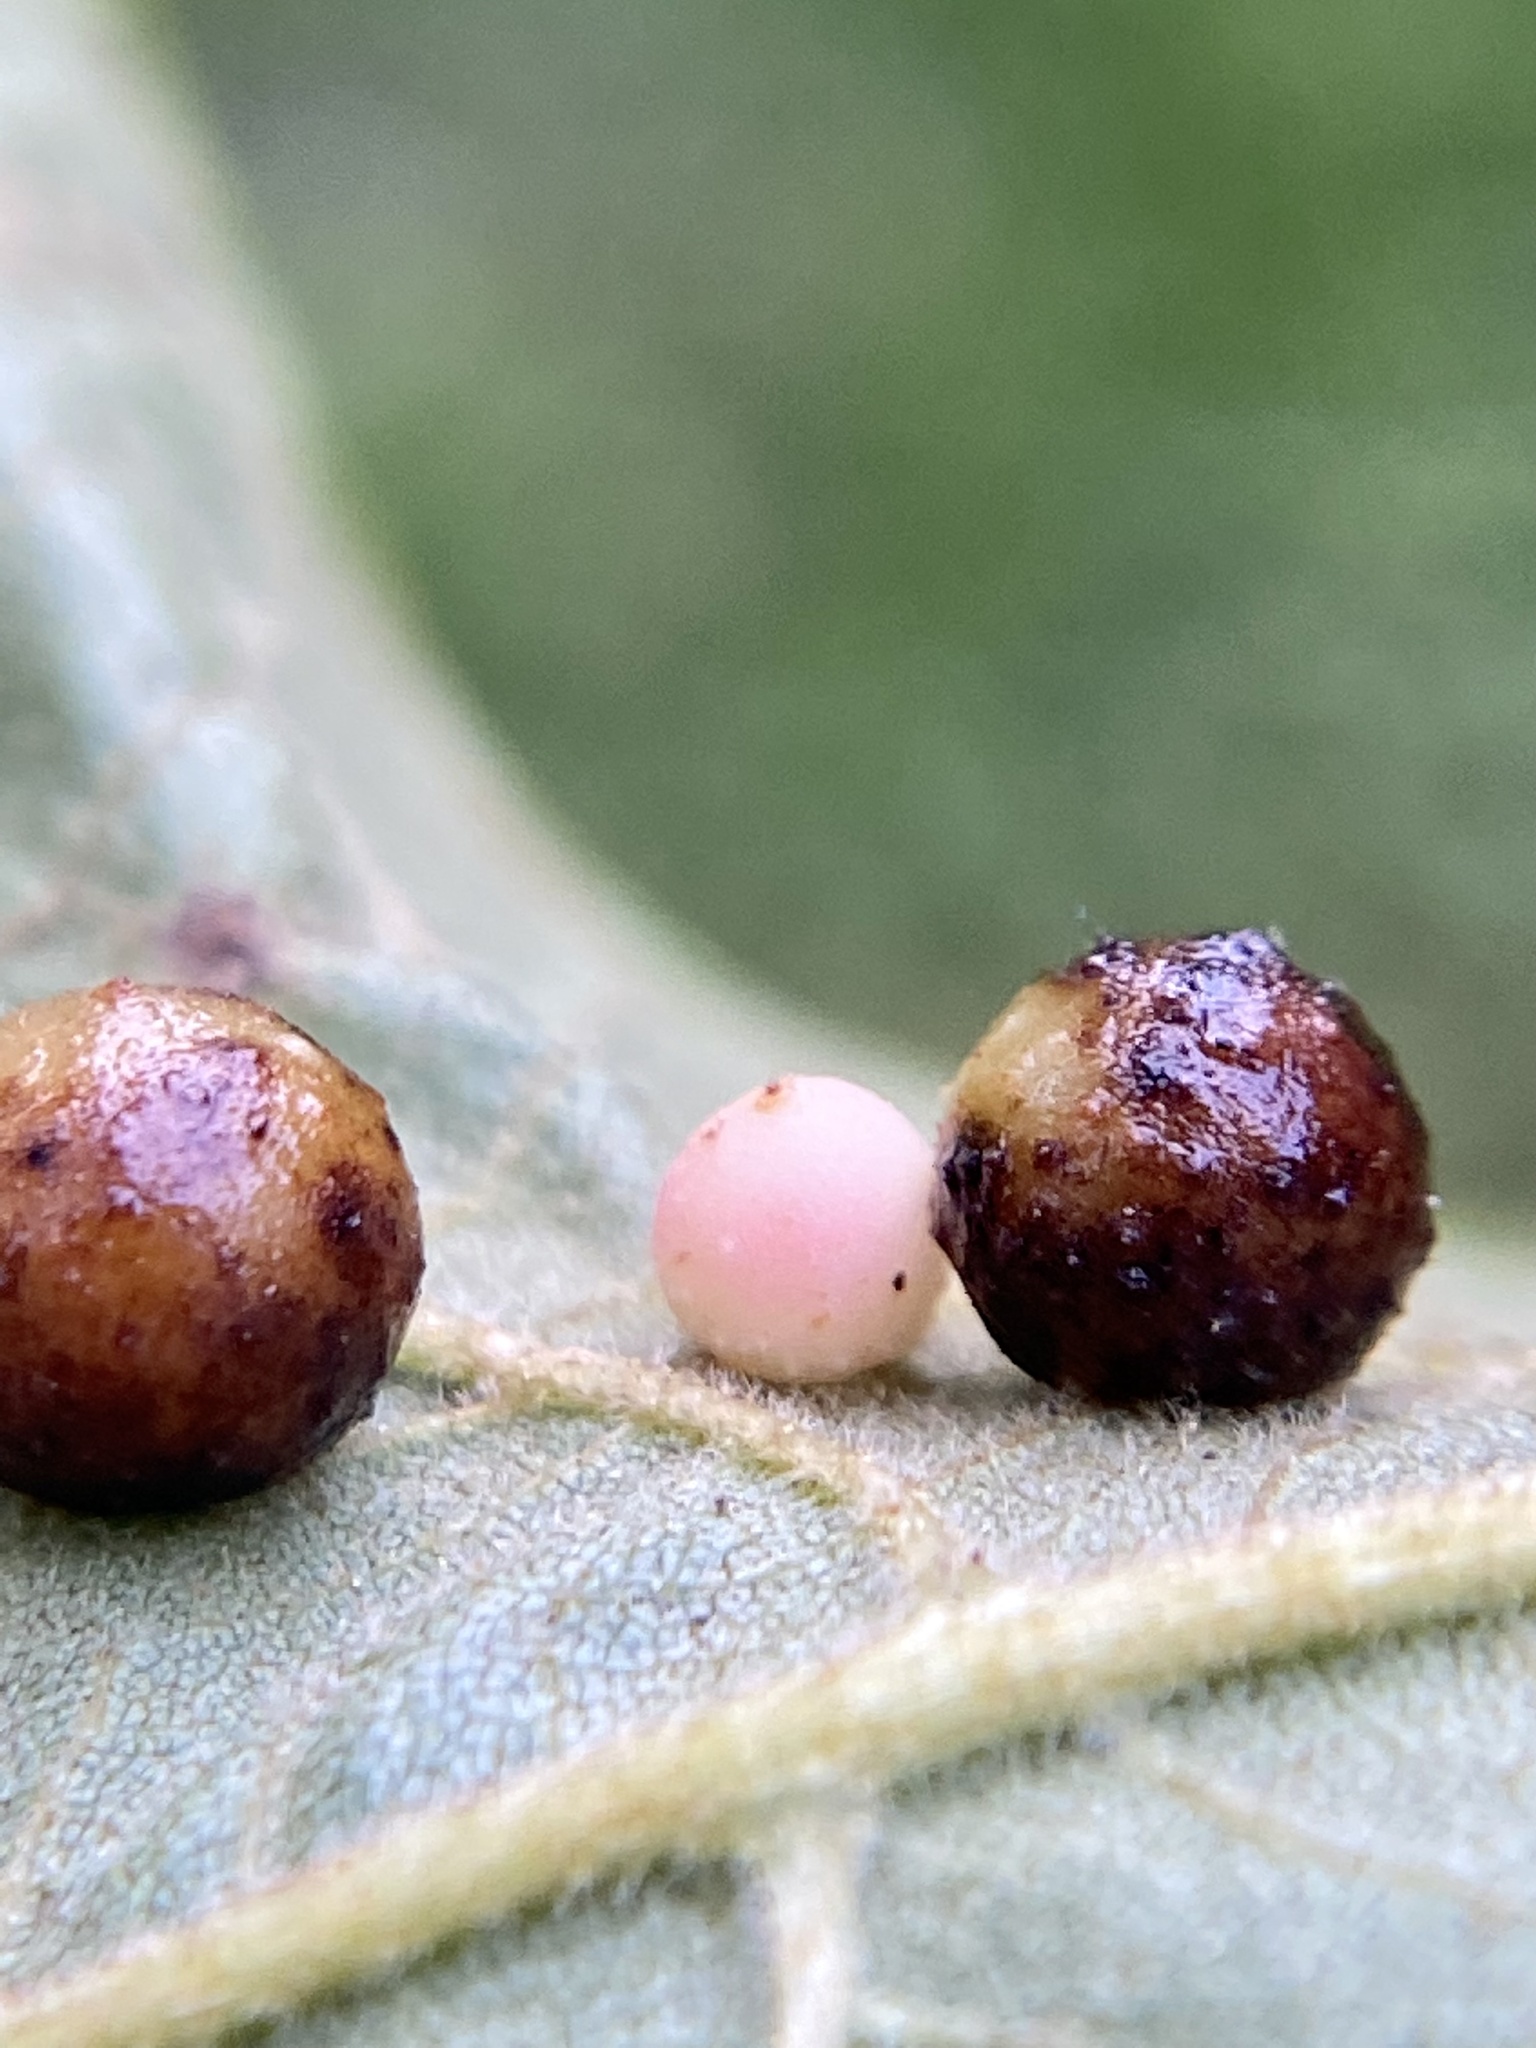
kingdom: Animalia
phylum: Arthropoda
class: Insecta
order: Diptera
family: Cecidomyiidae
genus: Caryomyia
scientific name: Caryomyia tuberculata
